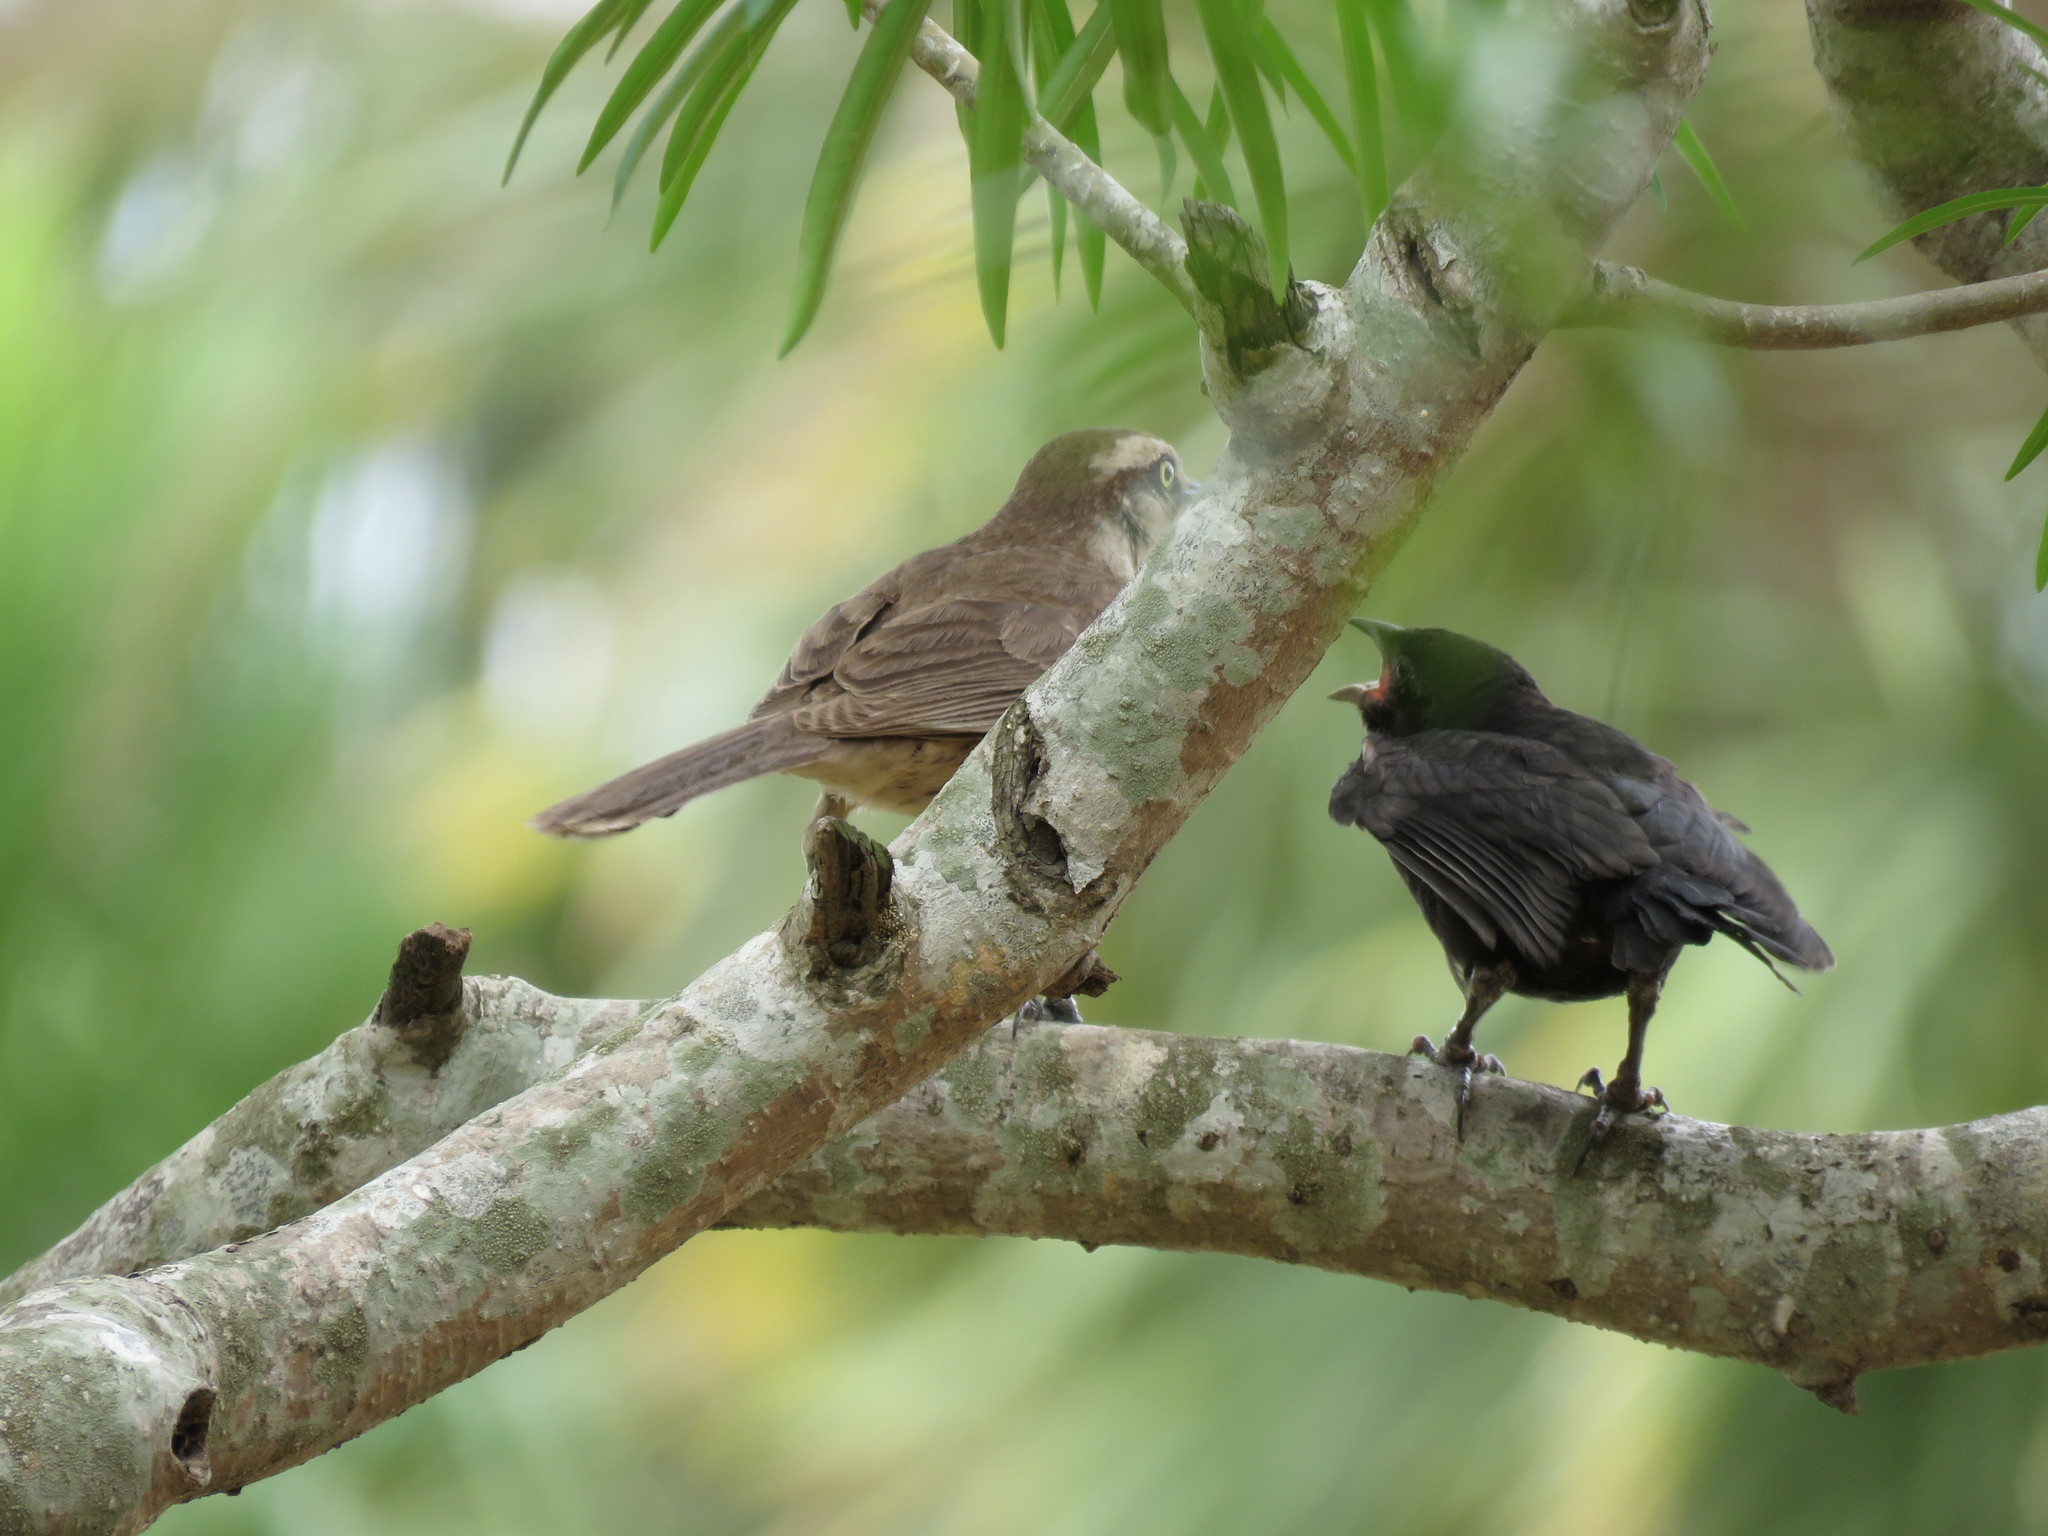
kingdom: Animalia
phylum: Chordata
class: Aves
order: Passeriformes
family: Icteridae
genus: Molothrus
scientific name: Molothrus bonariensis
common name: Shiny cowbird
